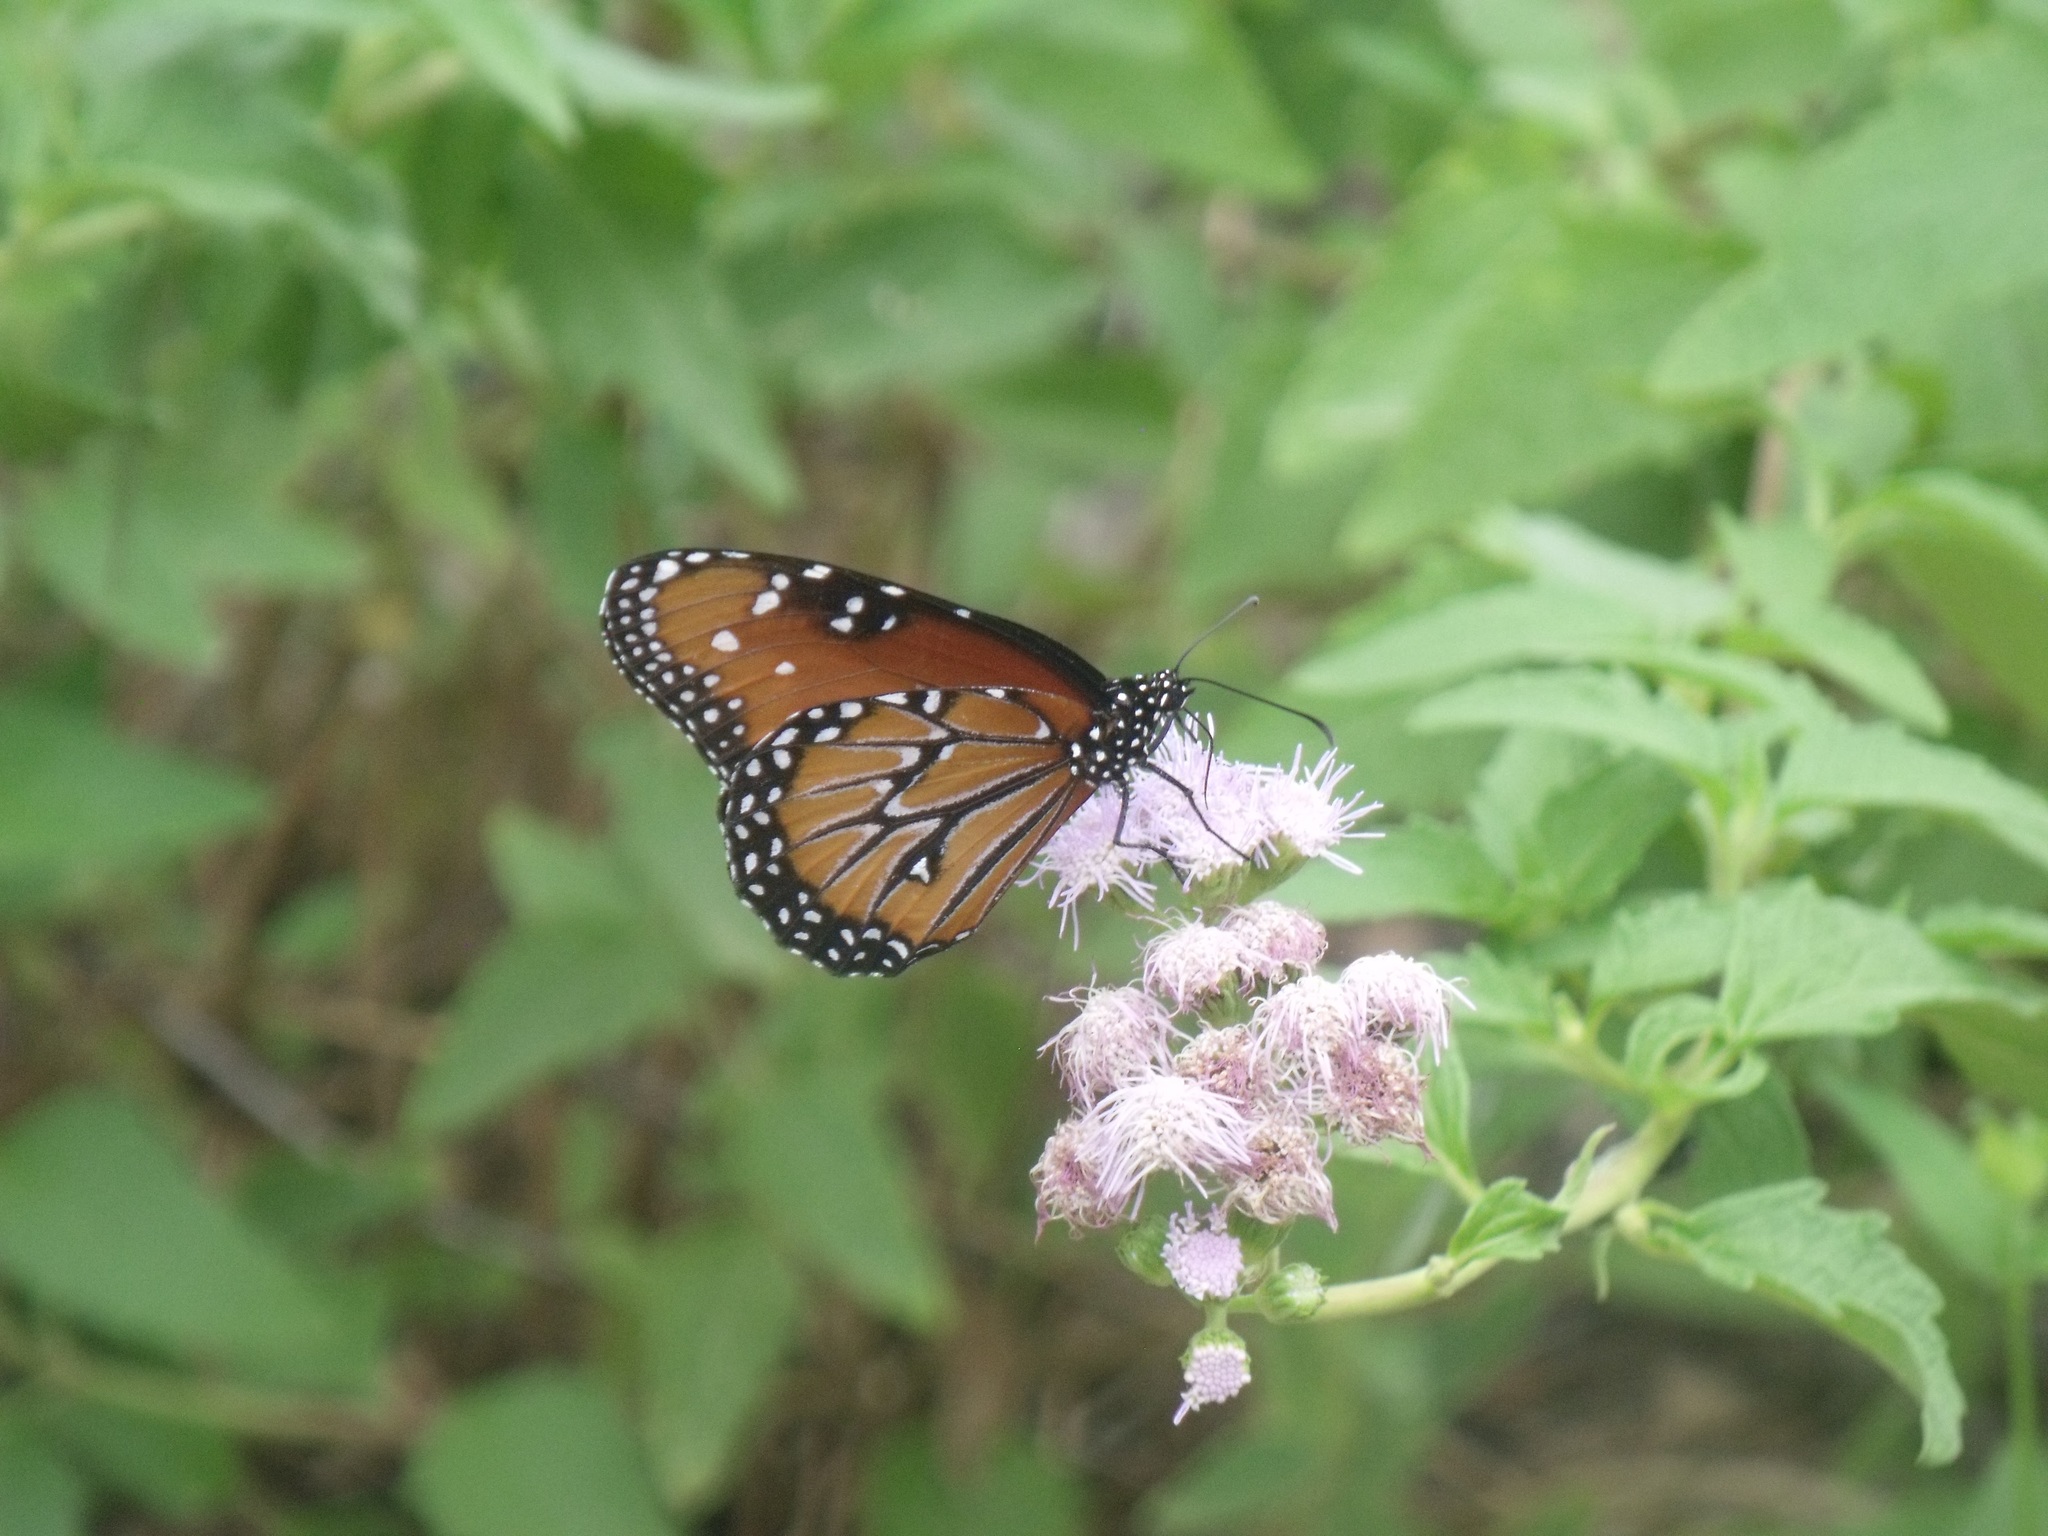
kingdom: Animalia
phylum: Arthropoda
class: Insecta
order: Lepidoptera
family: Nymphalidae
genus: Danaus
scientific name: Danaus gilippus
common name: Queen
